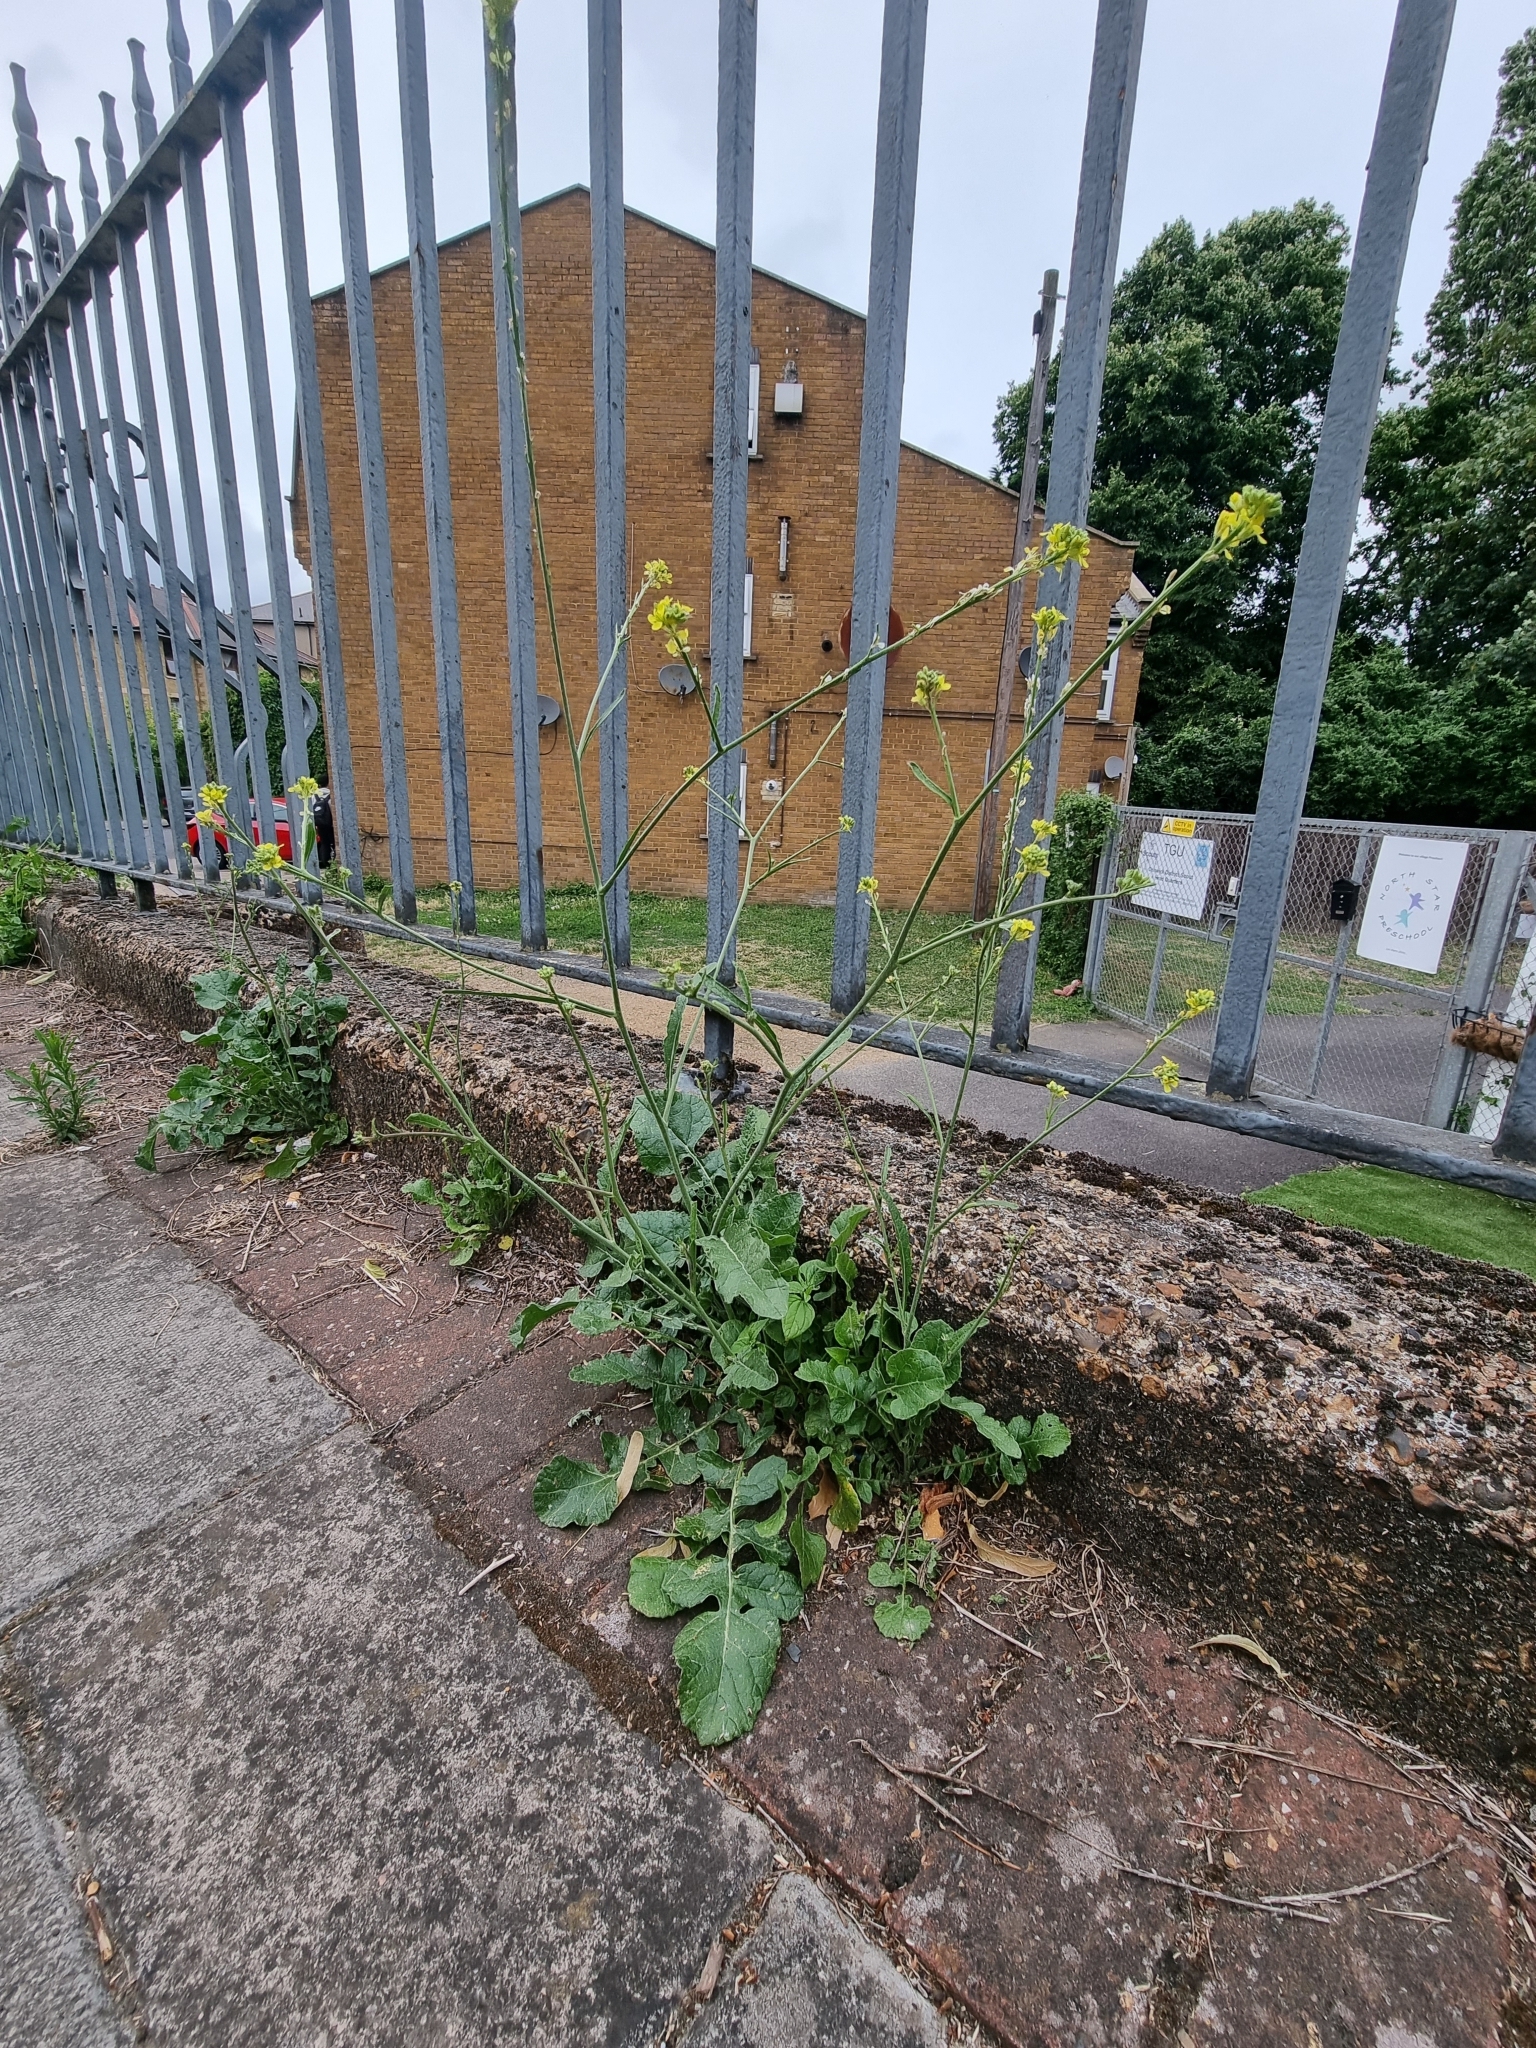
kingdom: Plantae
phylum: Tracheophyta
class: Magnoliopsida
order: Brassicales
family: Brassicaceae
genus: Hirschfeldia
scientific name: Hirschfeldia incana
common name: Hoary mustard
